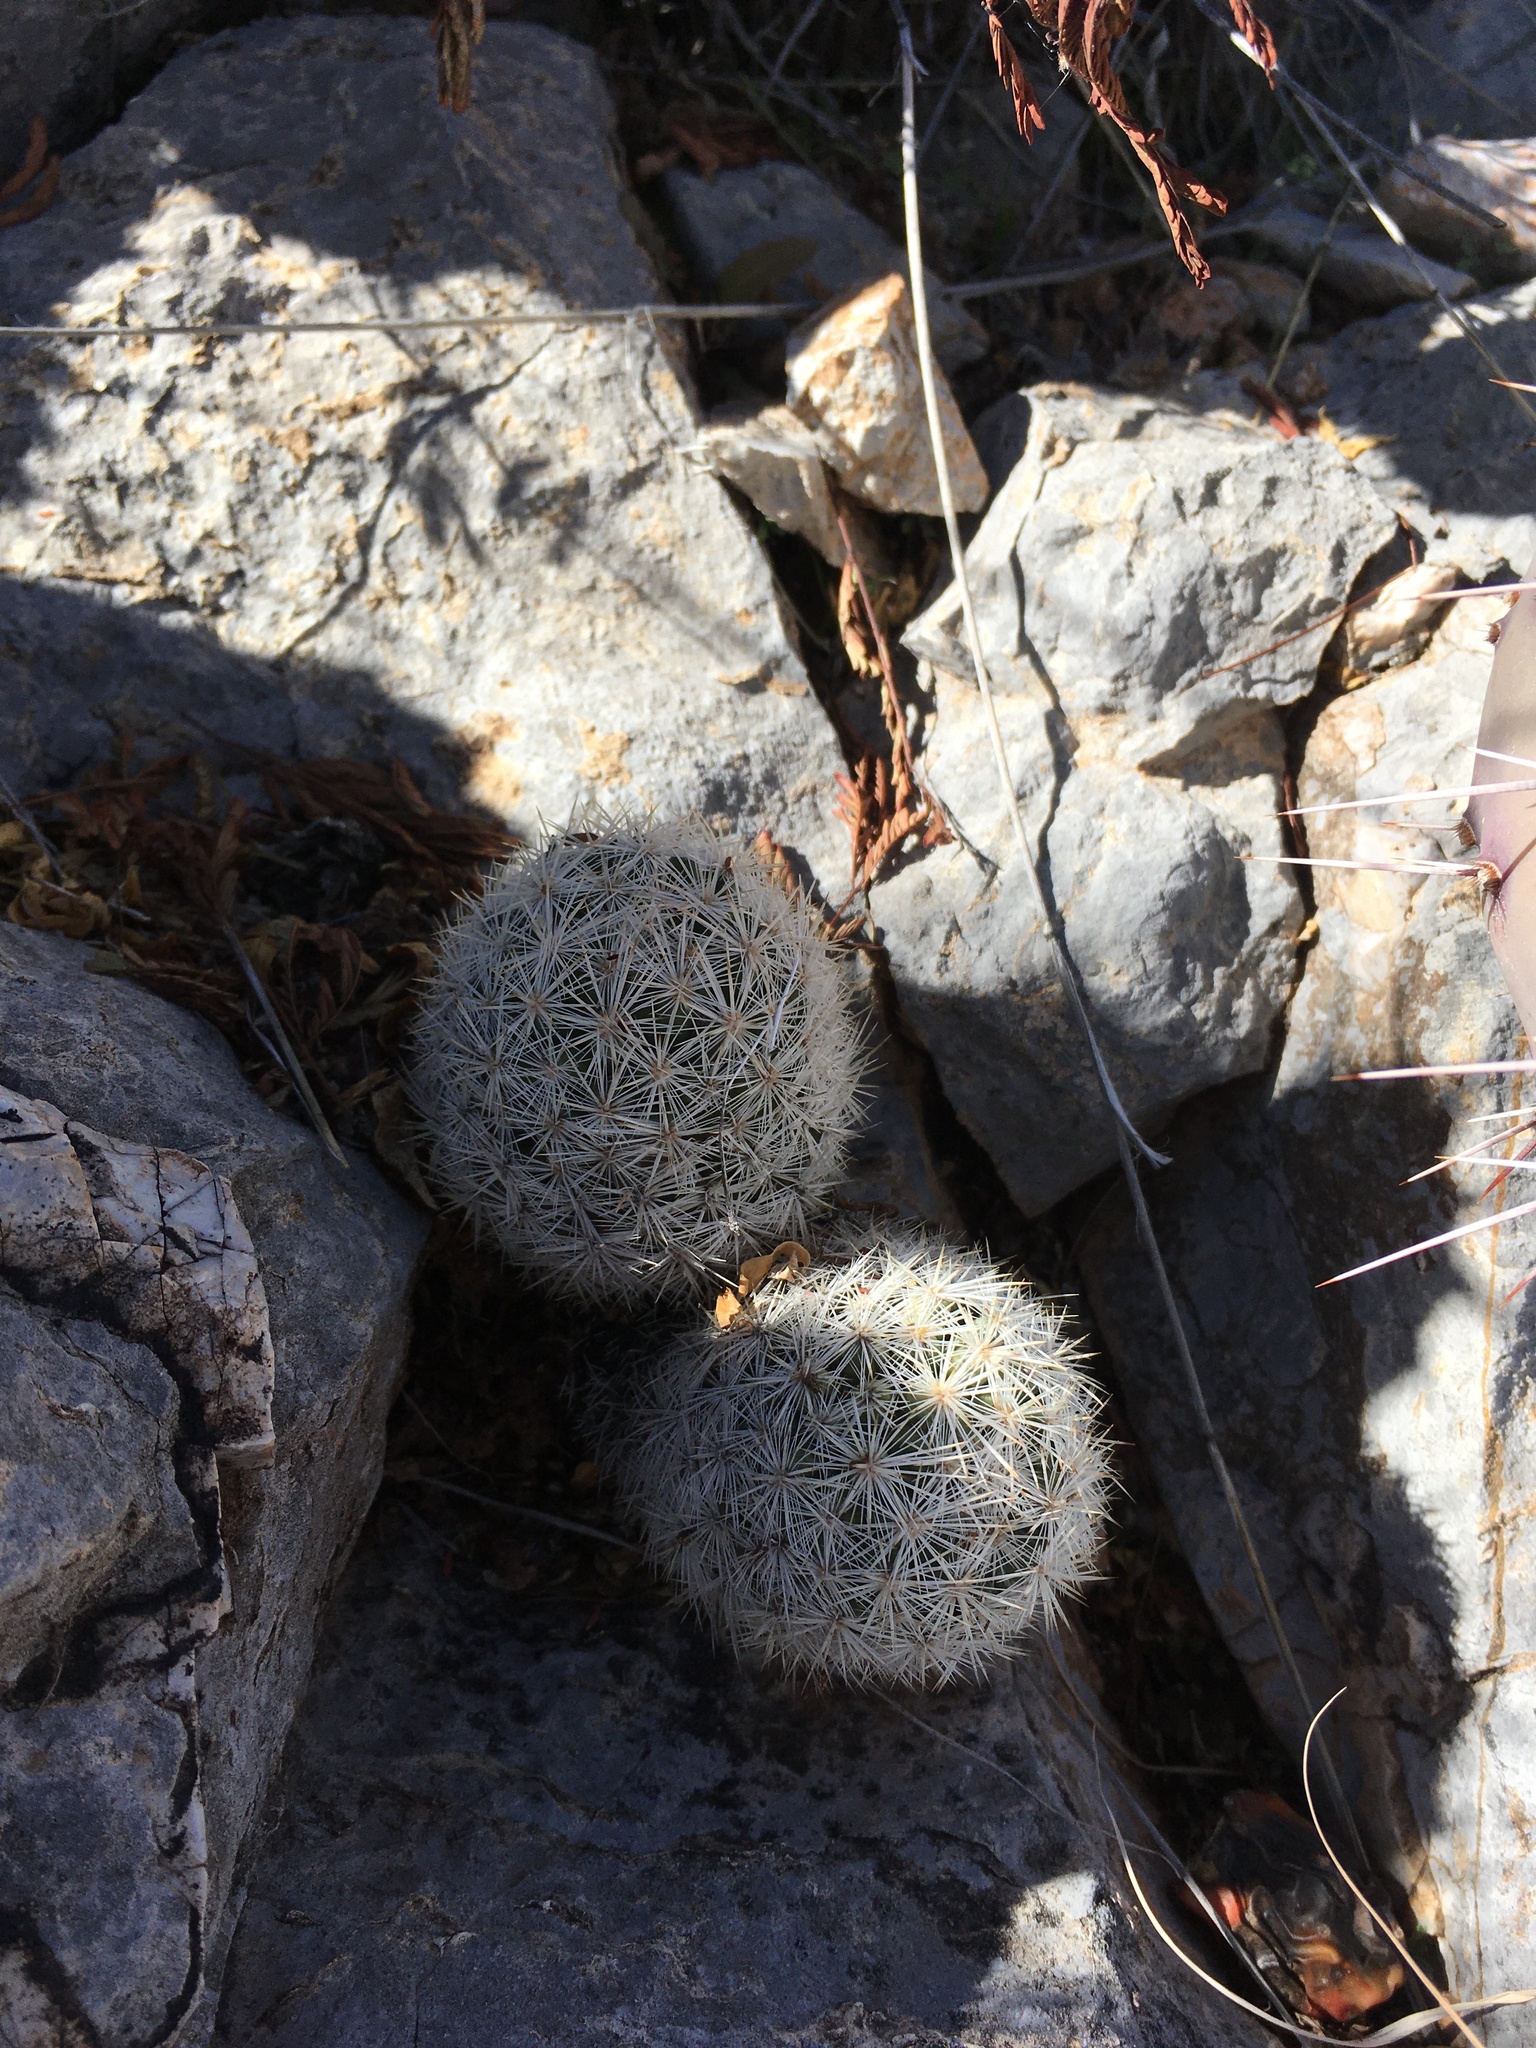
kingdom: Plantae
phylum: Tracheophyta
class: Magnoliopsida
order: Caryophyllales
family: Cactaceae
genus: Pelecyphora
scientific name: Pelecyphora sneedii
